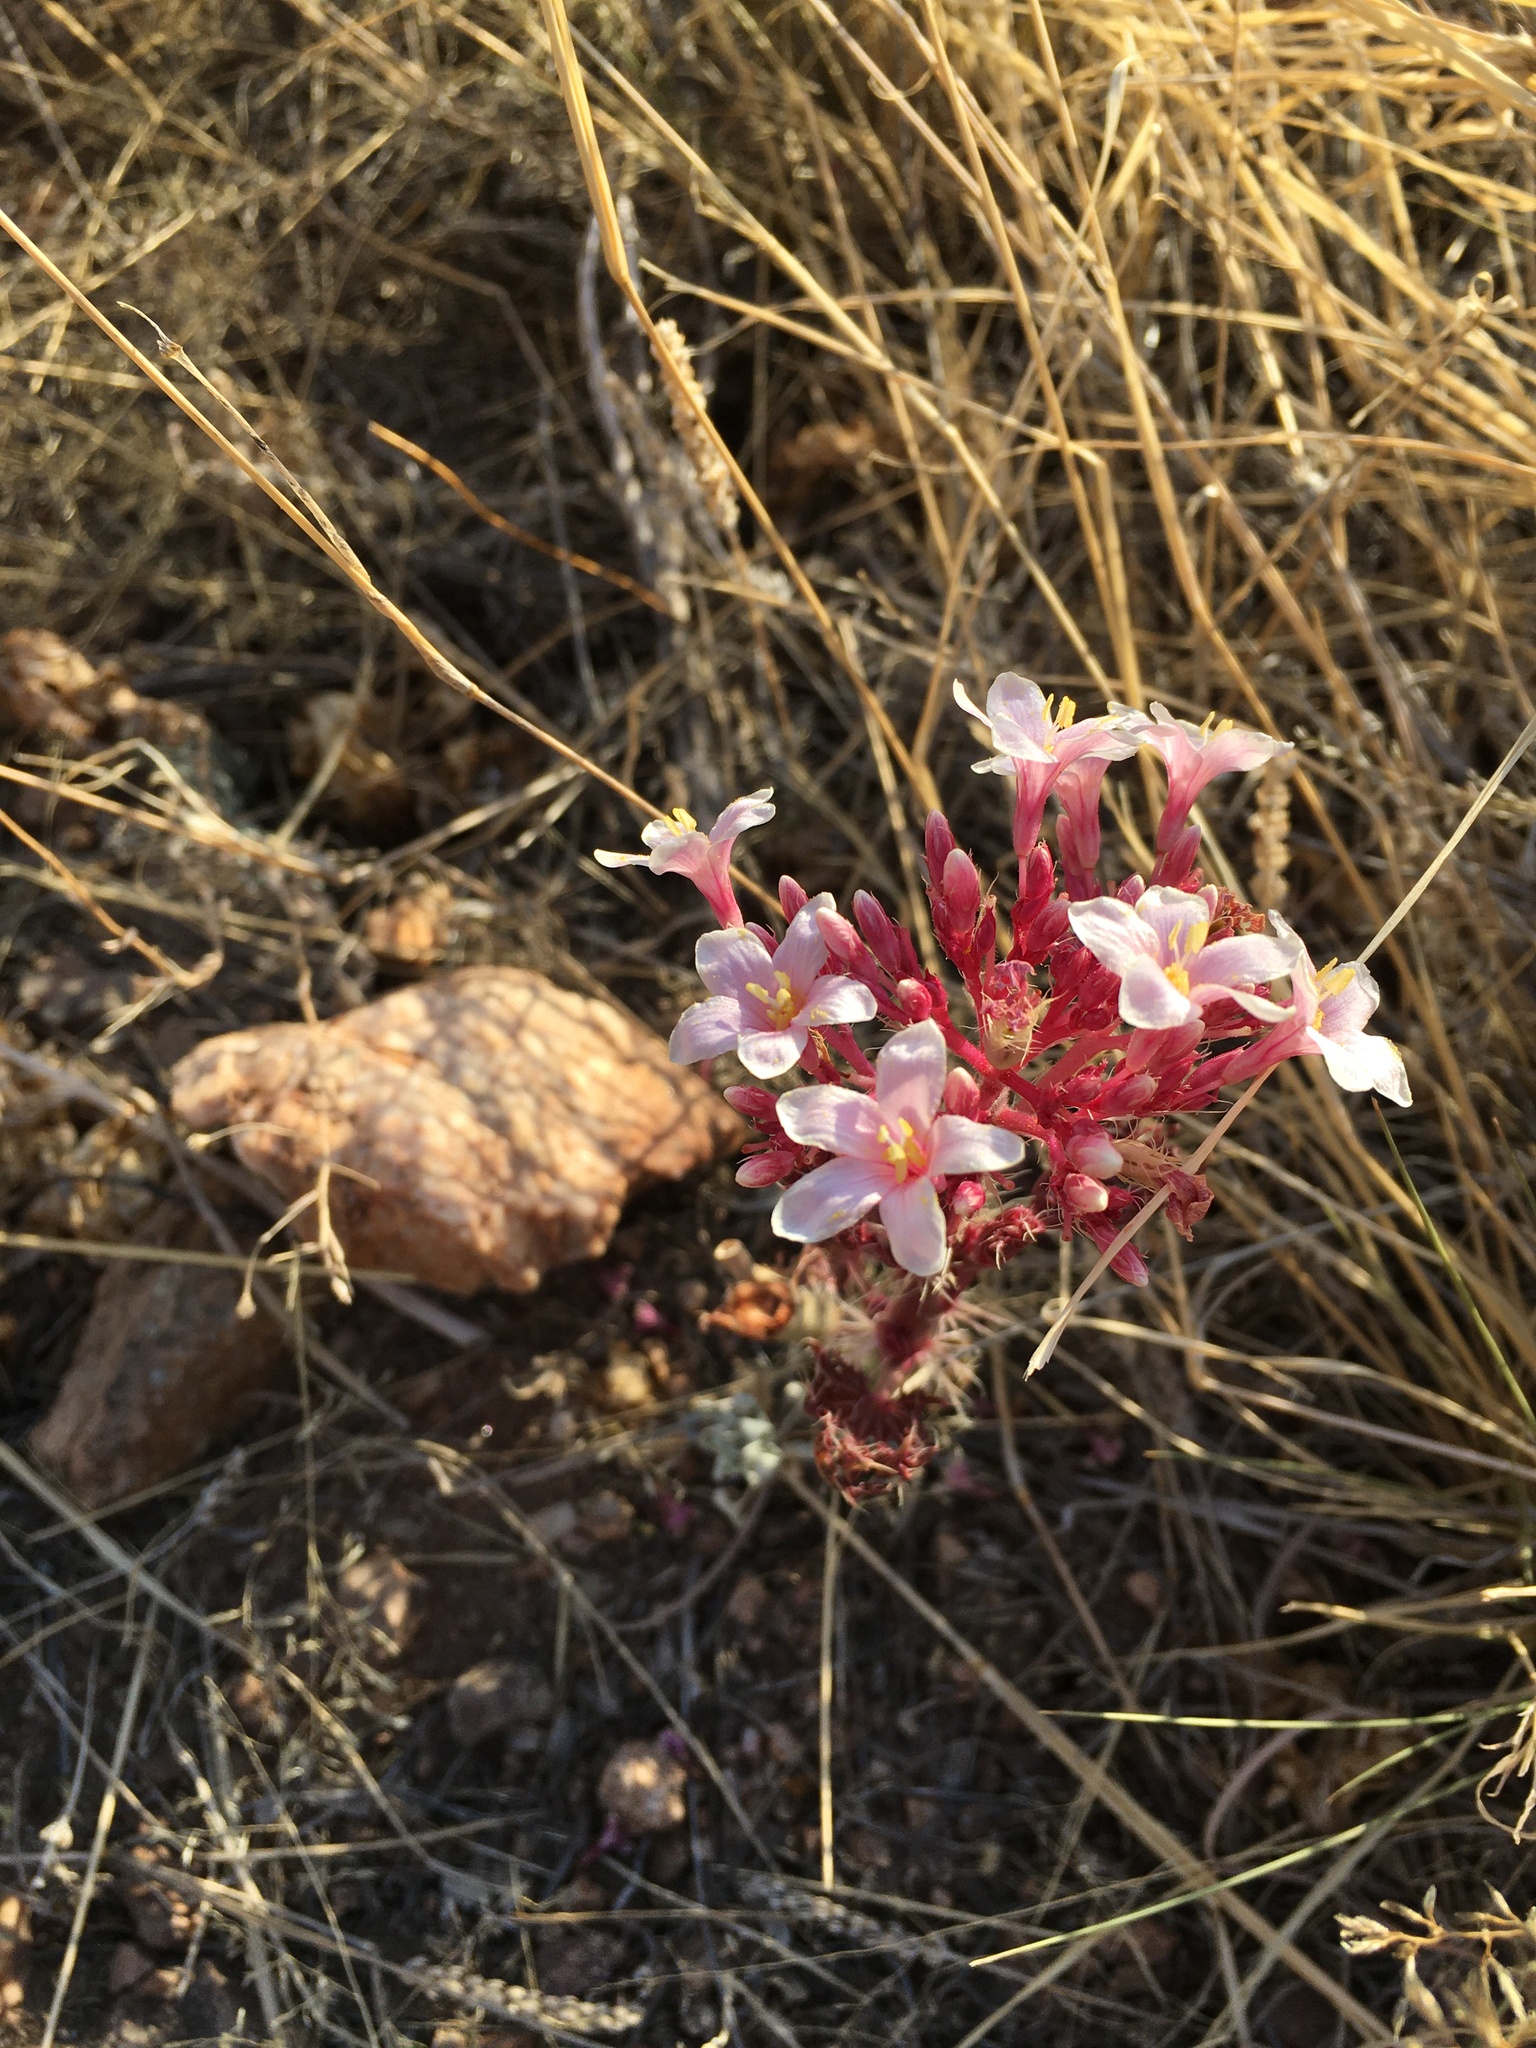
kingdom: Plantae
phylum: Tracheophyta
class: Magnoliopsida
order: Malpighiales
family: Euphorbiaceae
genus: Jatropha
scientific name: Jatropha macrorhiza
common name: Ragged nettlespurge
